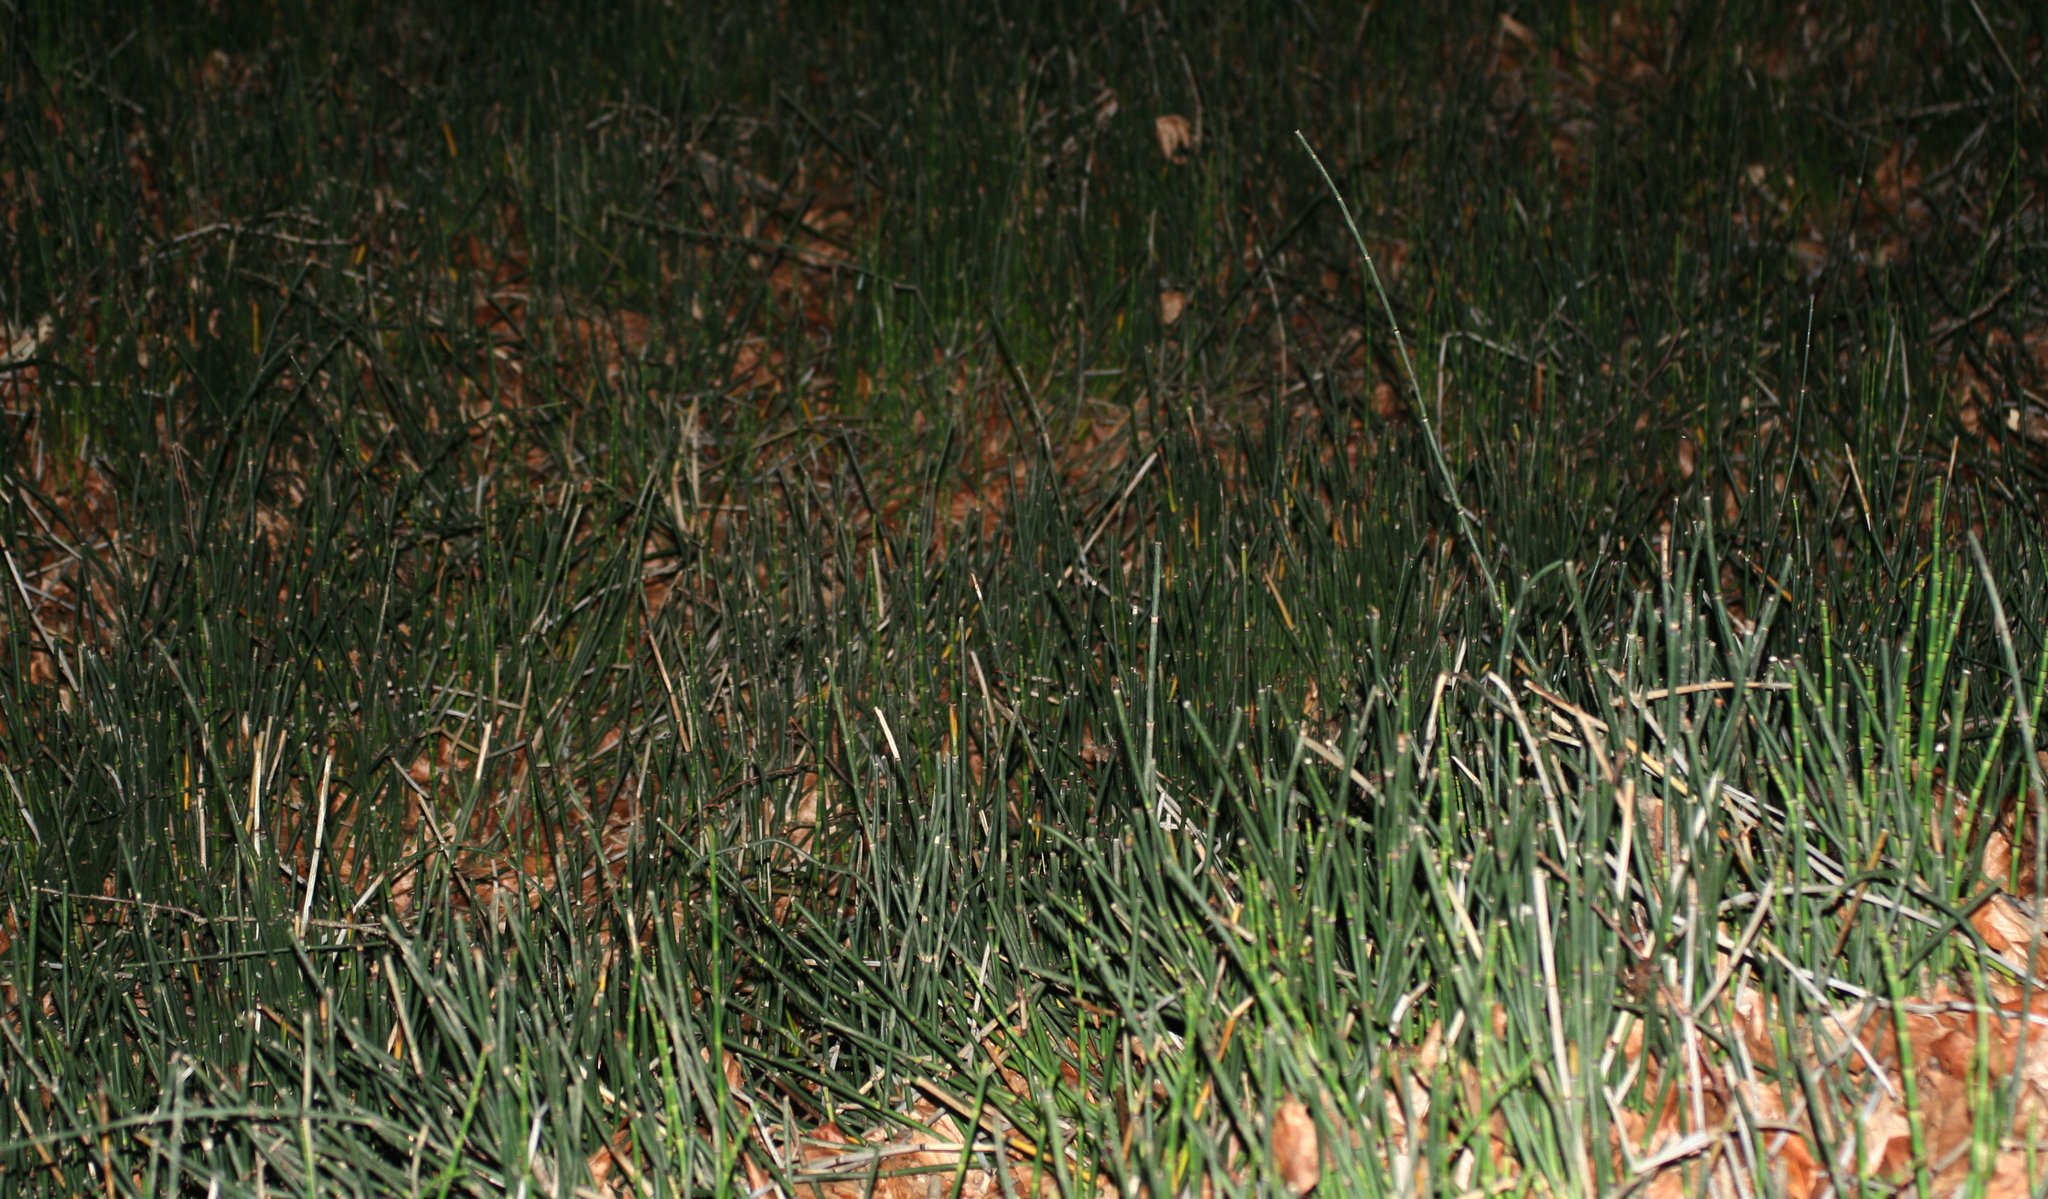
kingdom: Plantae
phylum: Tracheophyta
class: Polypodiopsida
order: Equisetales
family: Equisetaceae
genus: Equisetum
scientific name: Equisetum hyemale
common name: Rough horsetail
